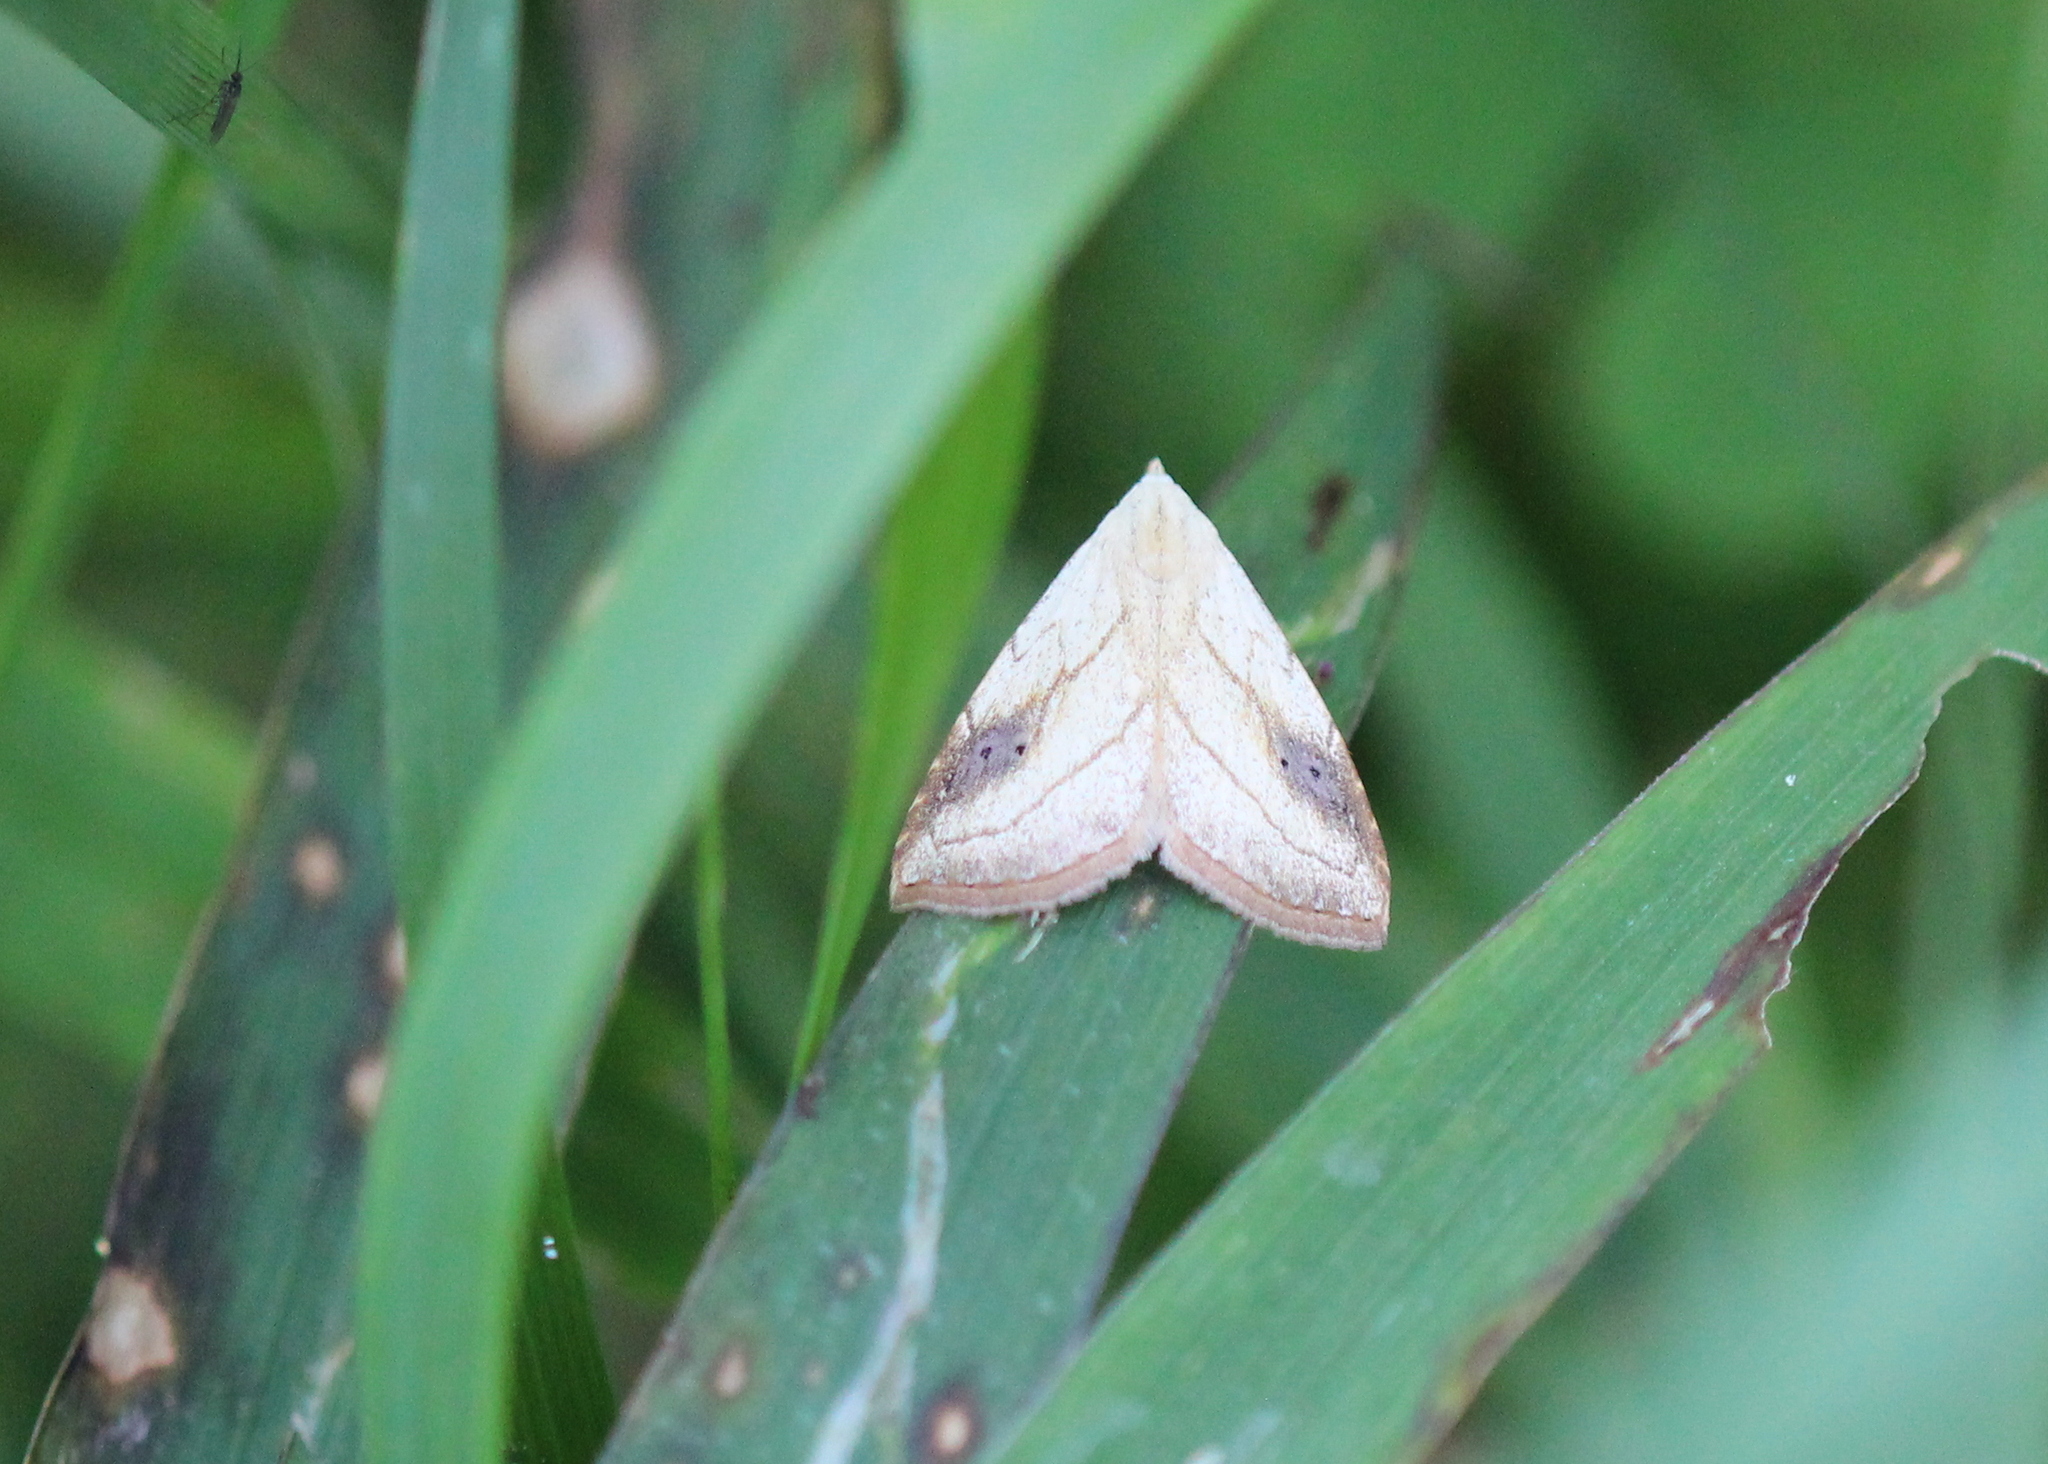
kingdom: Animalia
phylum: Arthropoda
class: Insecta
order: Lepidoptera
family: Erebidae
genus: Rivula
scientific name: Rivula propinqualis
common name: Spotted grass moth
